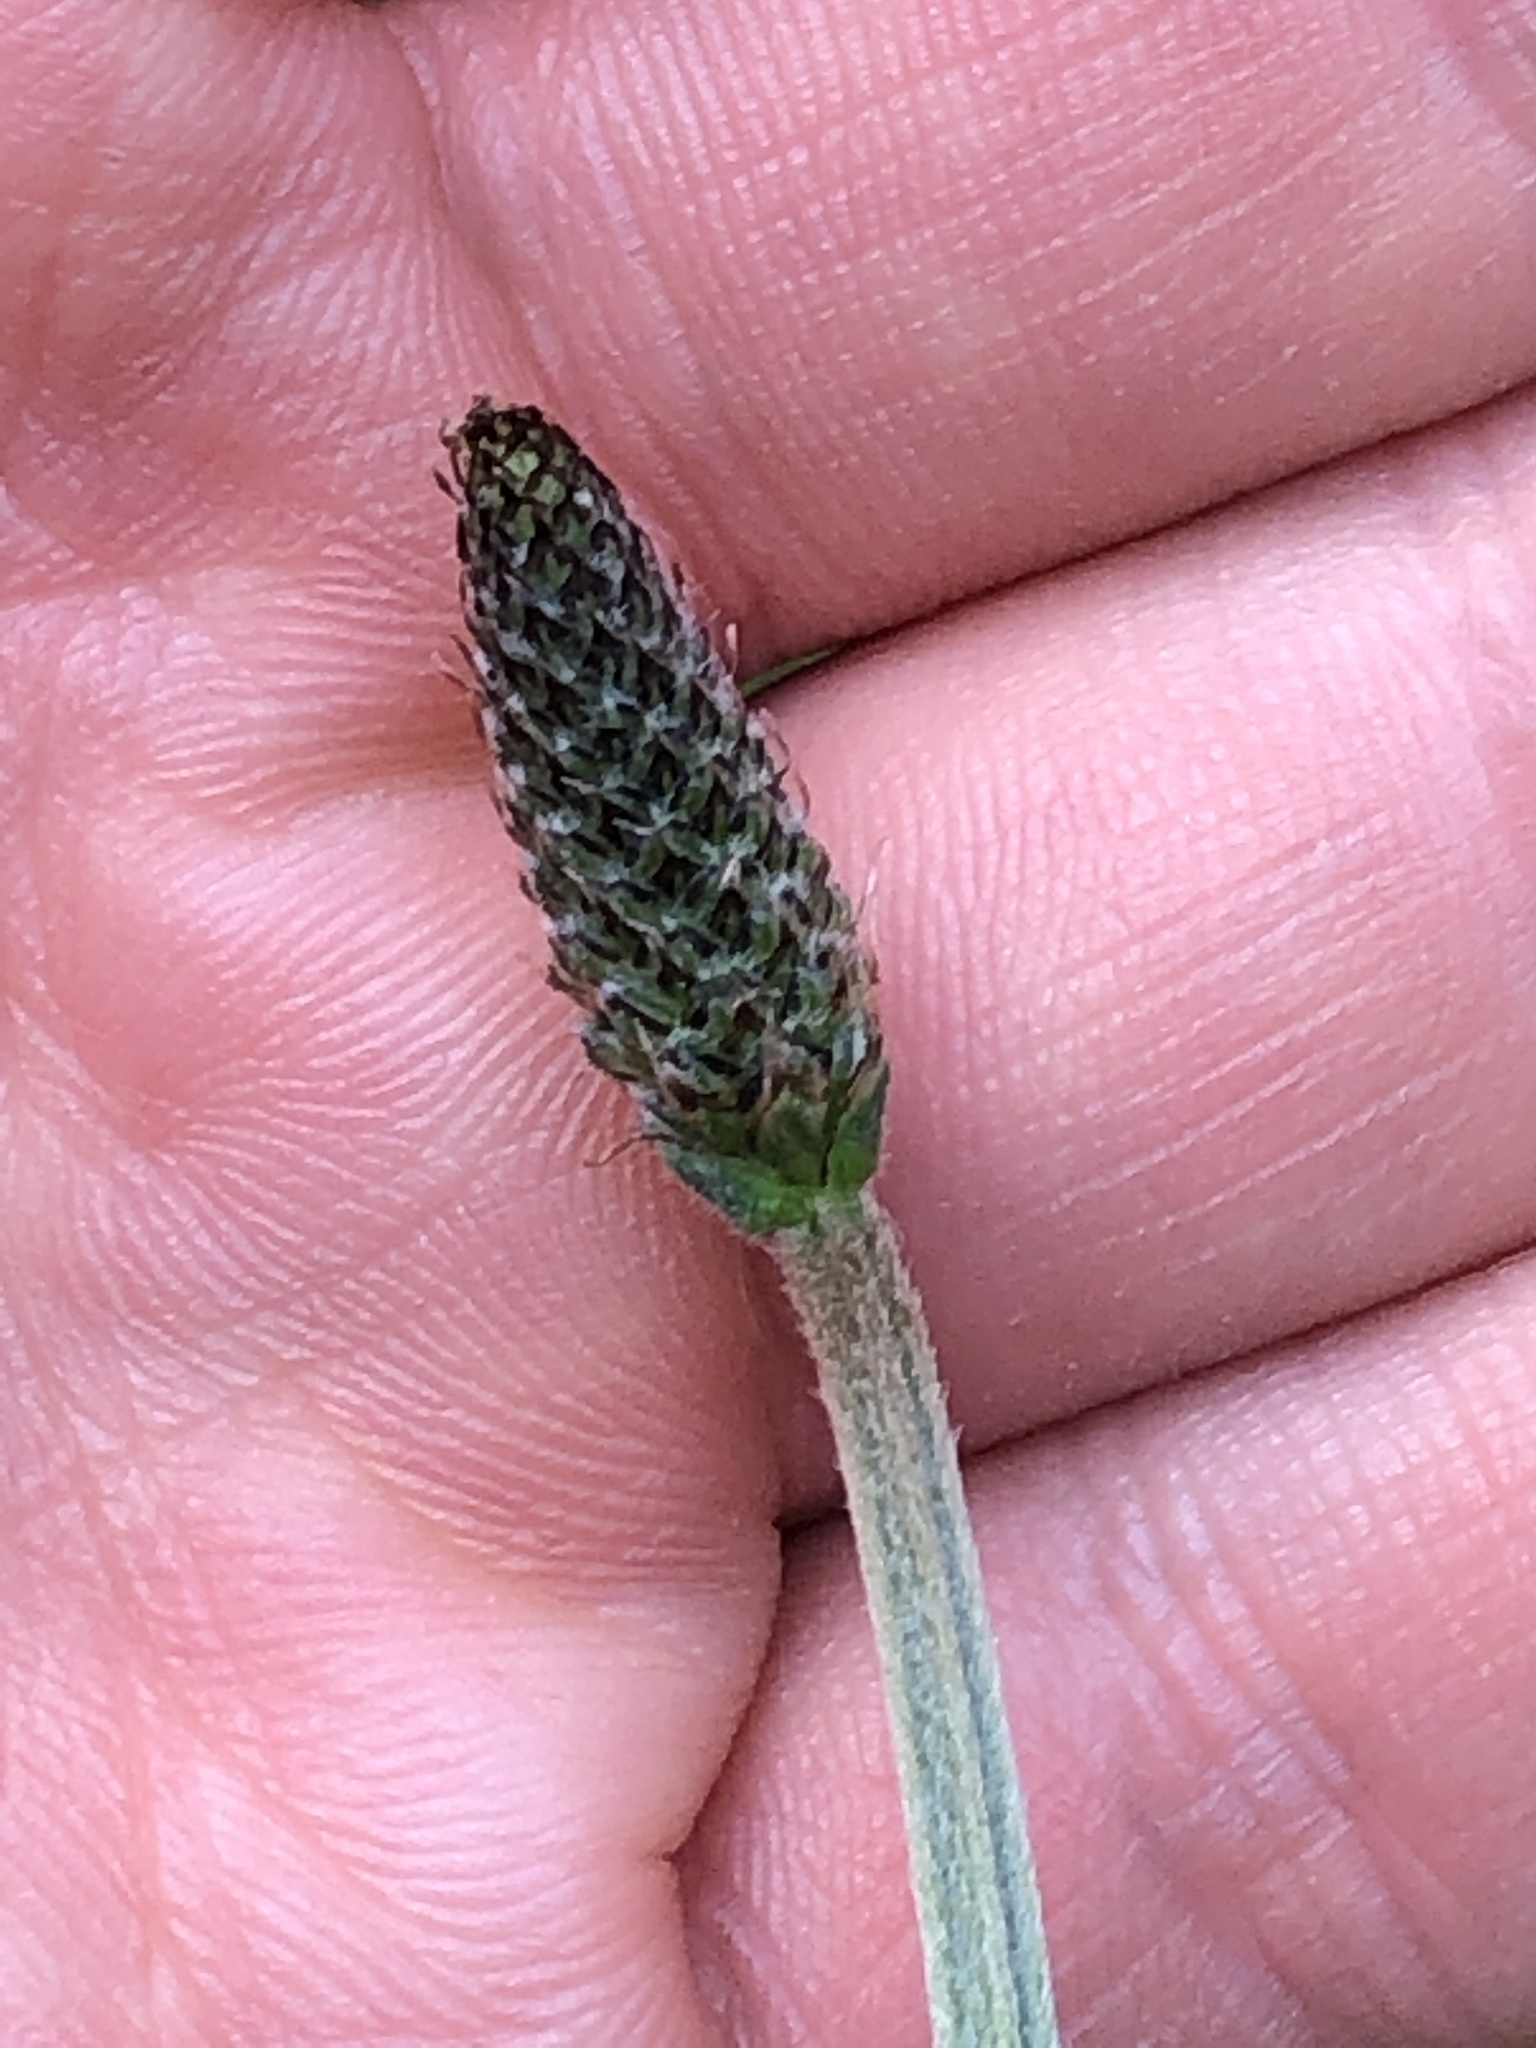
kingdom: Plantae
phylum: Tracheophyta
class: Magnoliopsida
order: Lamiales
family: Plantaginaceae
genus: Plantago
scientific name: Plantago lanceolata
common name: Ribwort plantain
